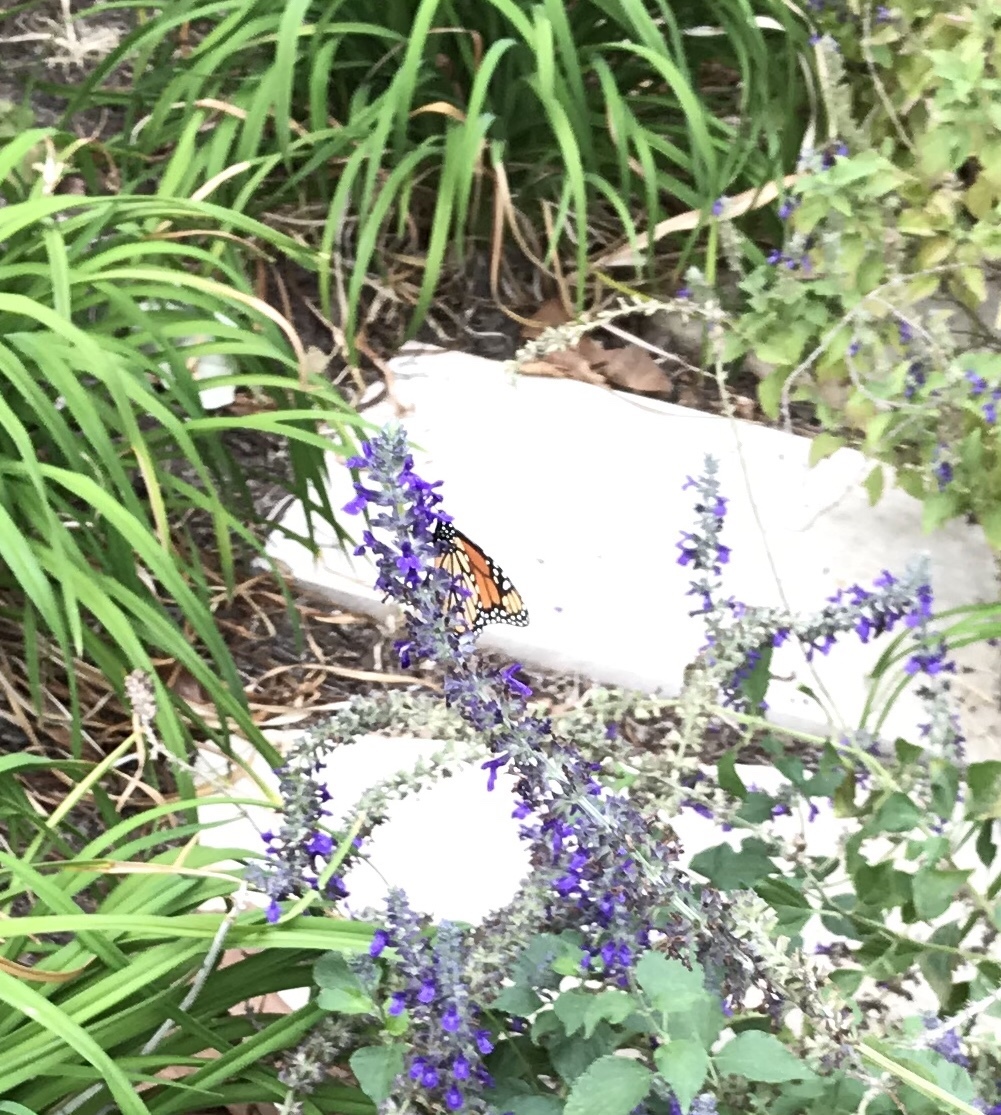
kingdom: Animalia
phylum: Arthropoda
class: Insecta
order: Lepidoptera
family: Nymphalidae
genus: Danaus
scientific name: Danaus plexippus
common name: Monarch
